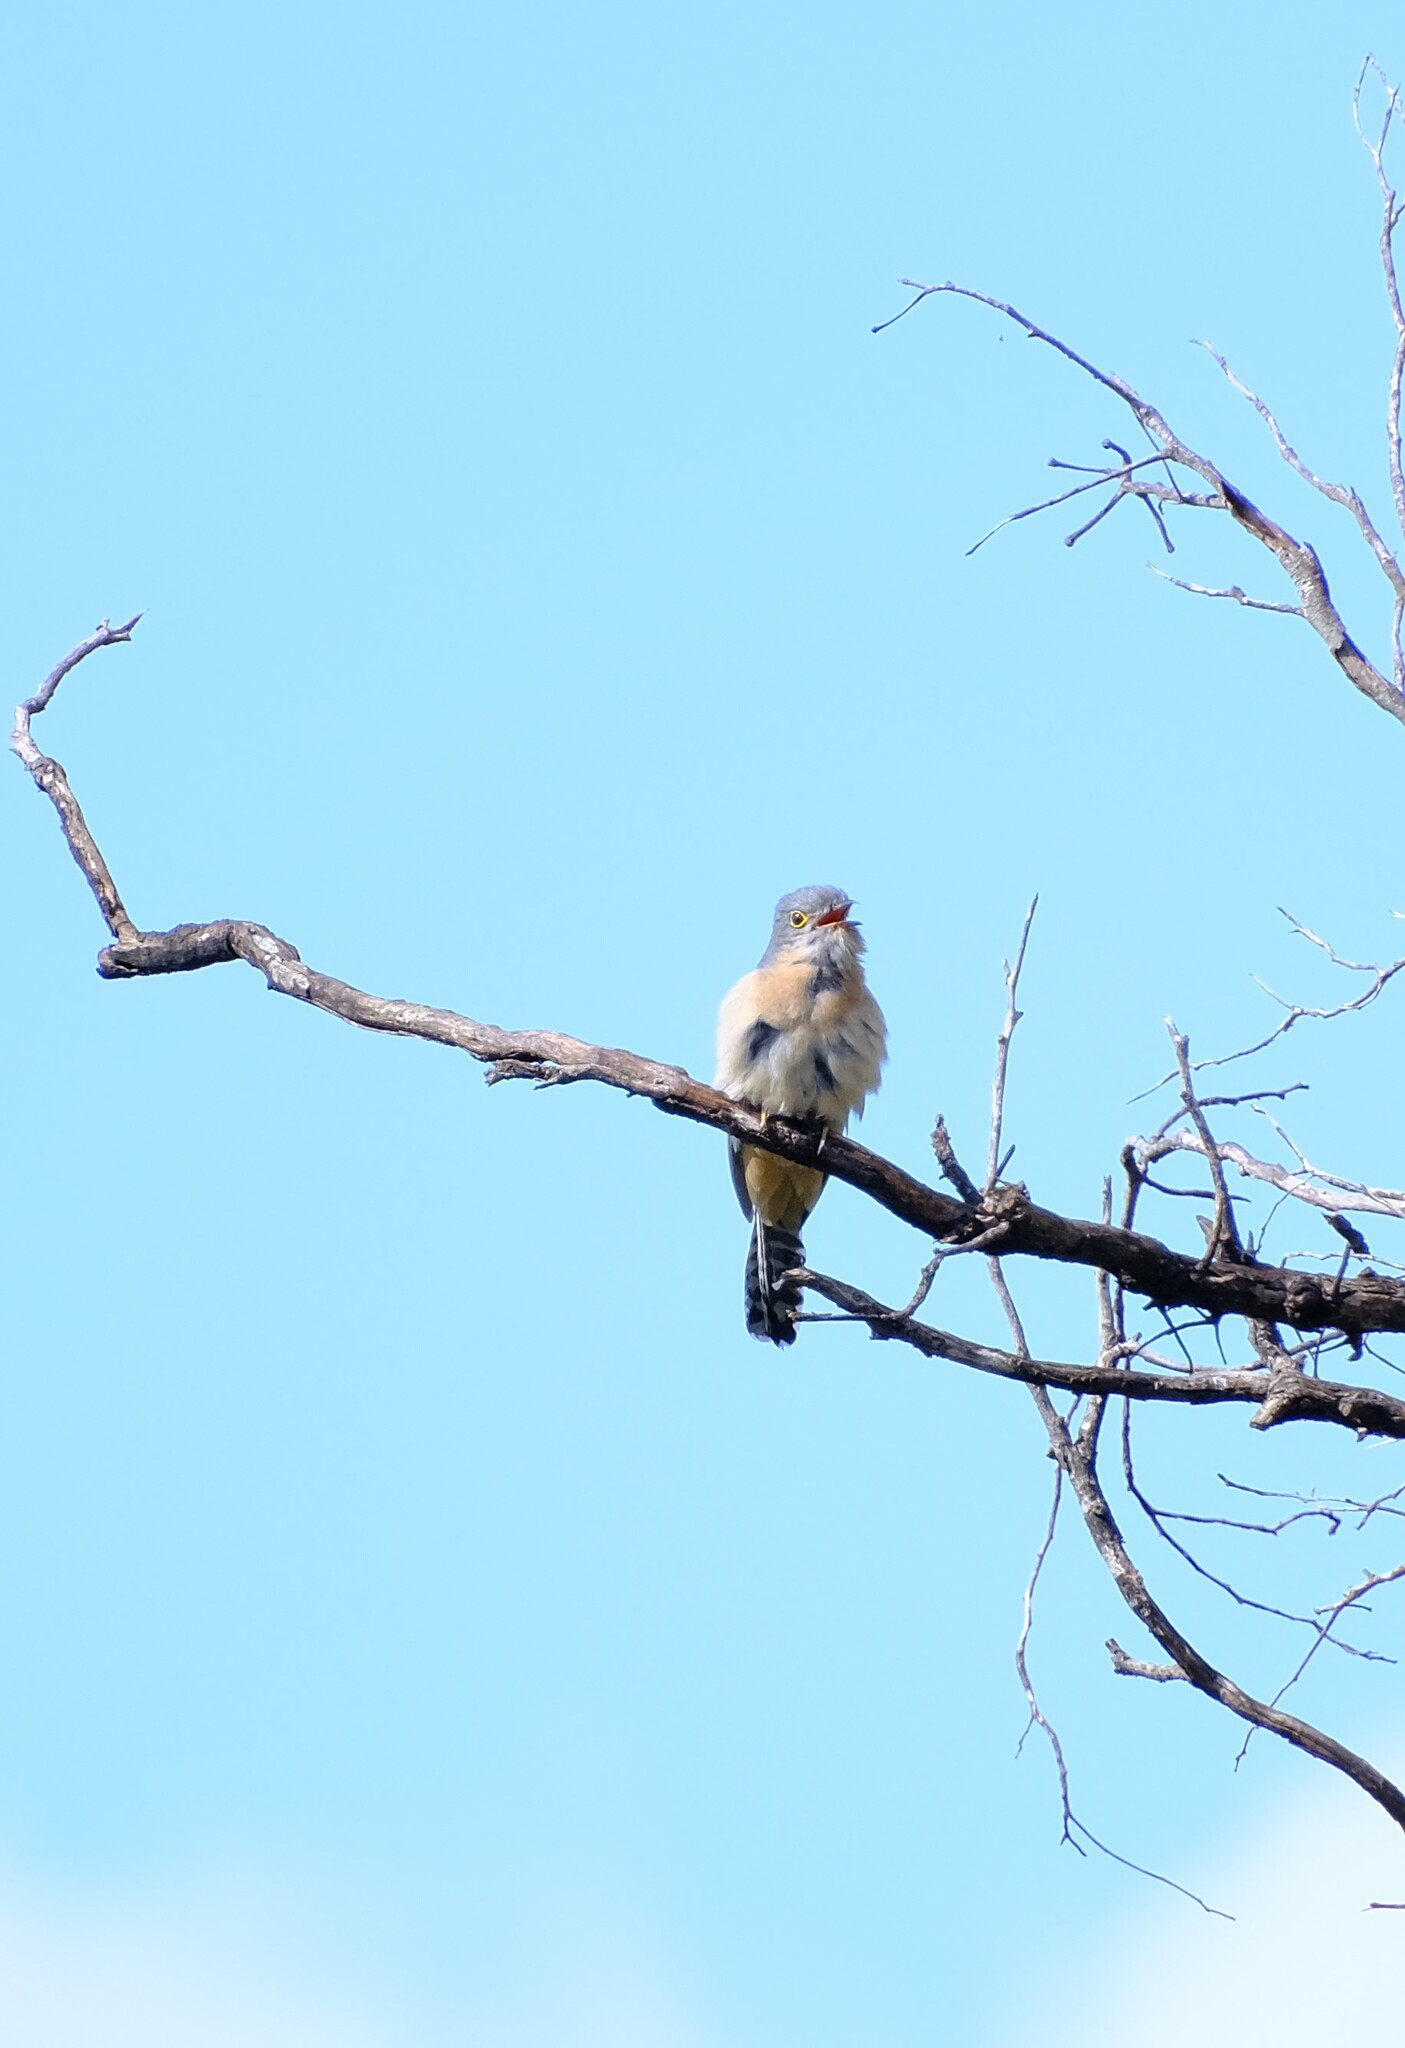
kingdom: Animalia
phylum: Chordata
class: Aves
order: Cuculiformes
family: Cuculidae
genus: Cacomantis
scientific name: Cacomantis flabelliformis
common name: Fan-tailed cuckoo
